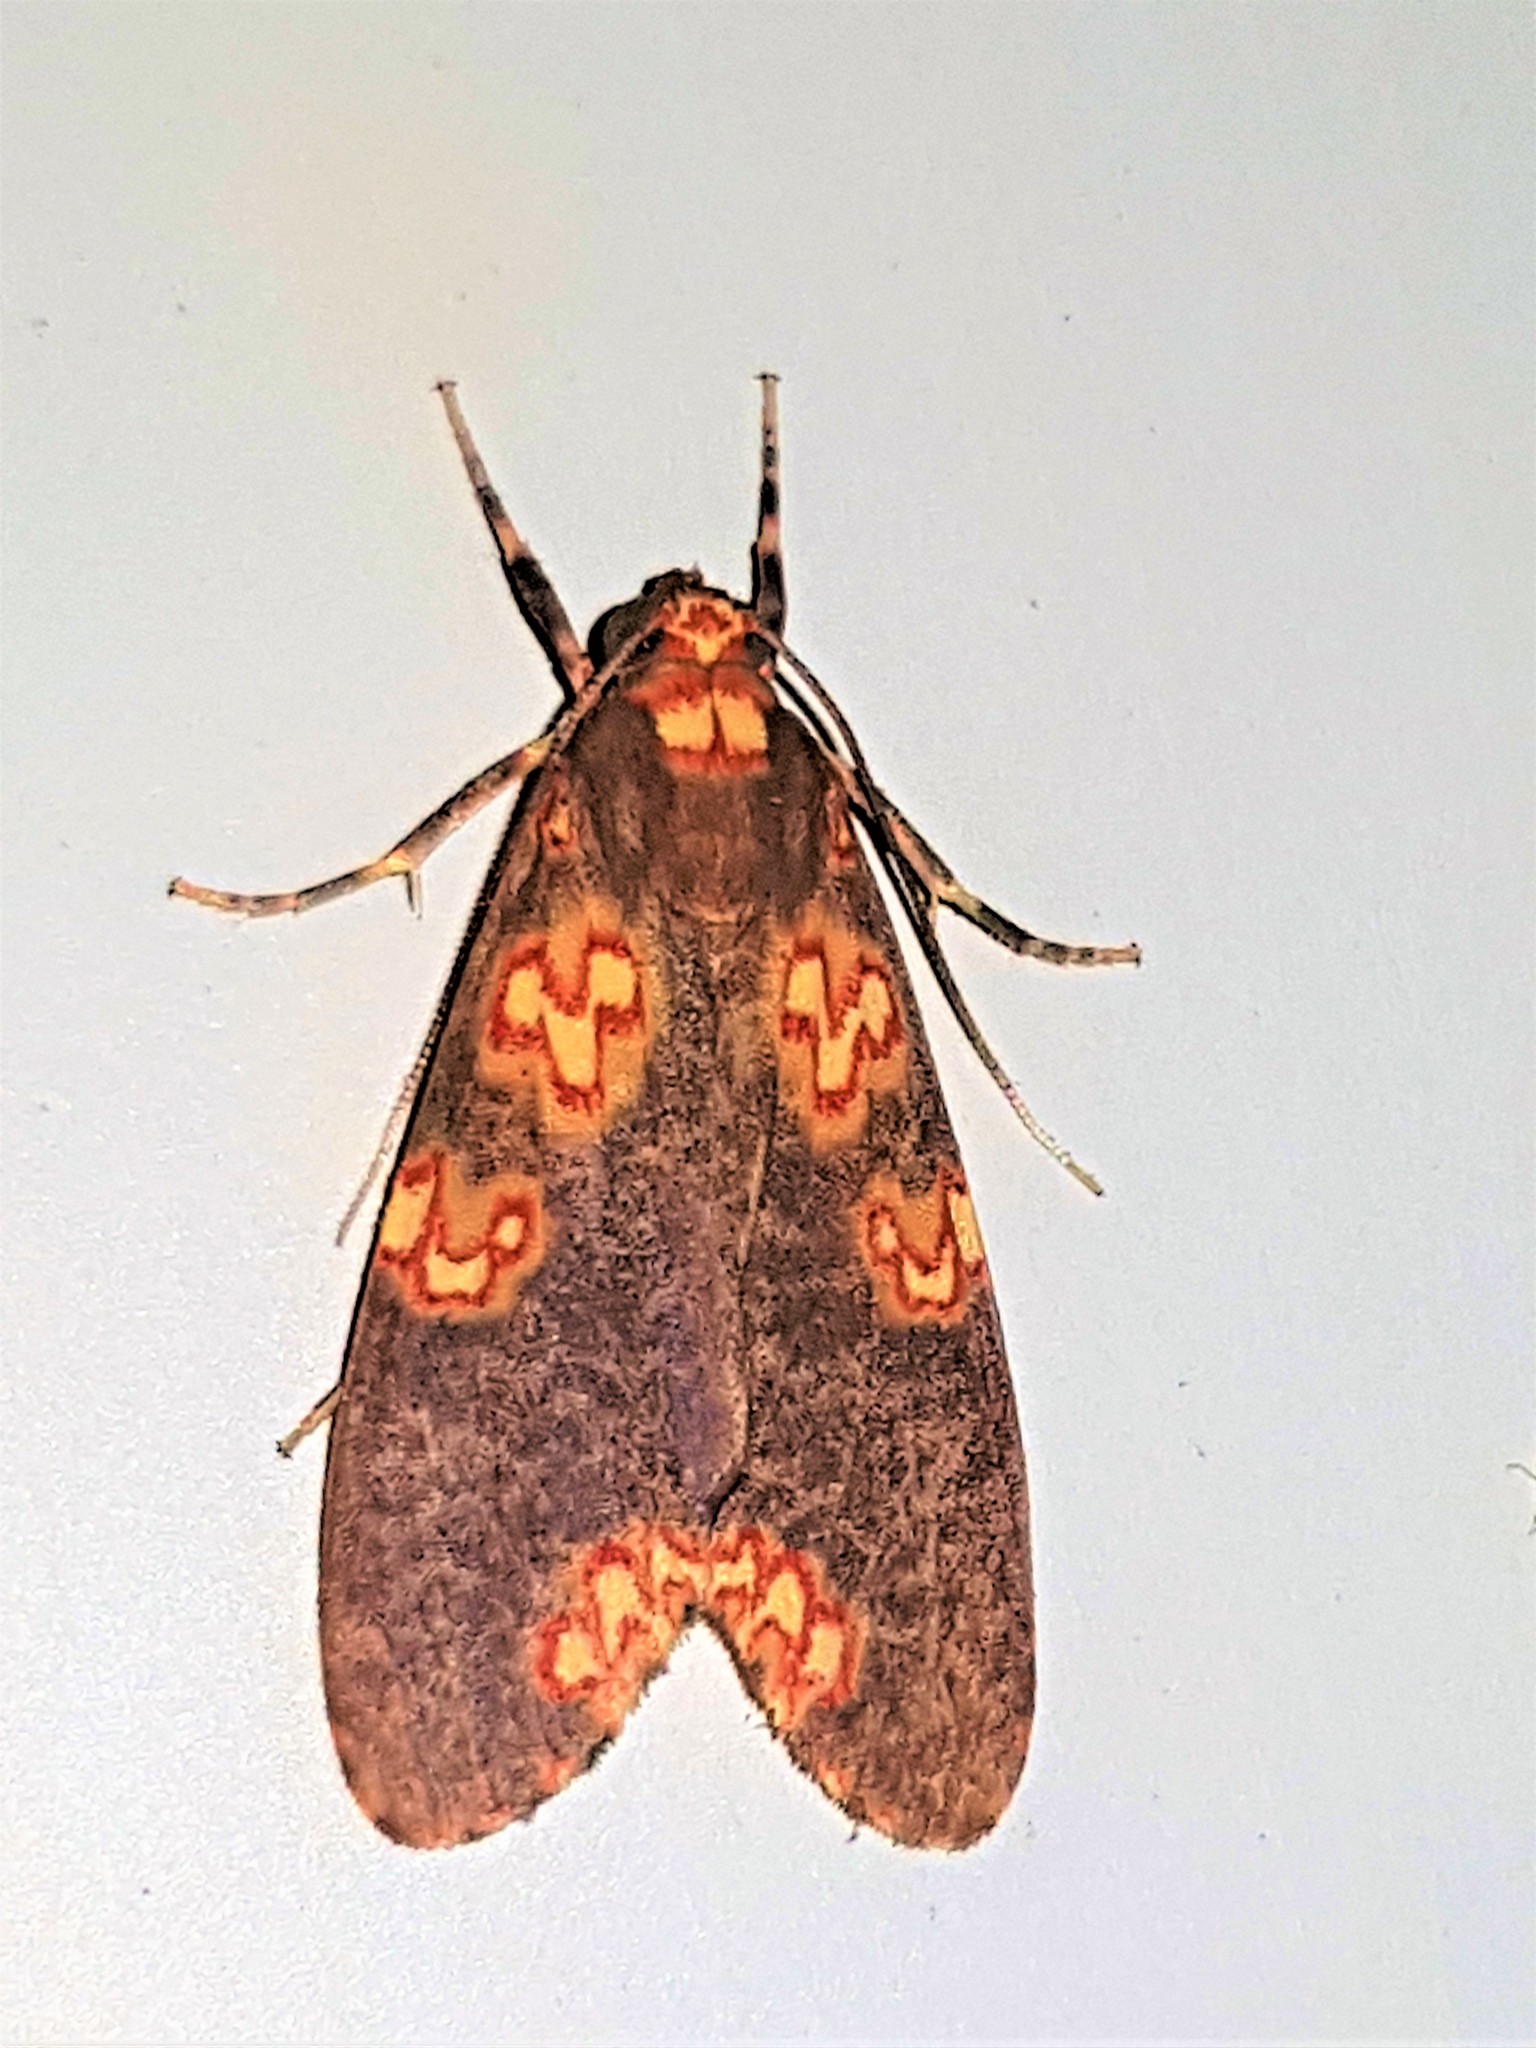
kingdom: Animalia
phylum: Arthropoda
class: Insecta
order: Lepidoptera
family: Erebidae
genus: Coiffaitarctia
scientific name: Coiffaitarctia steniptera
